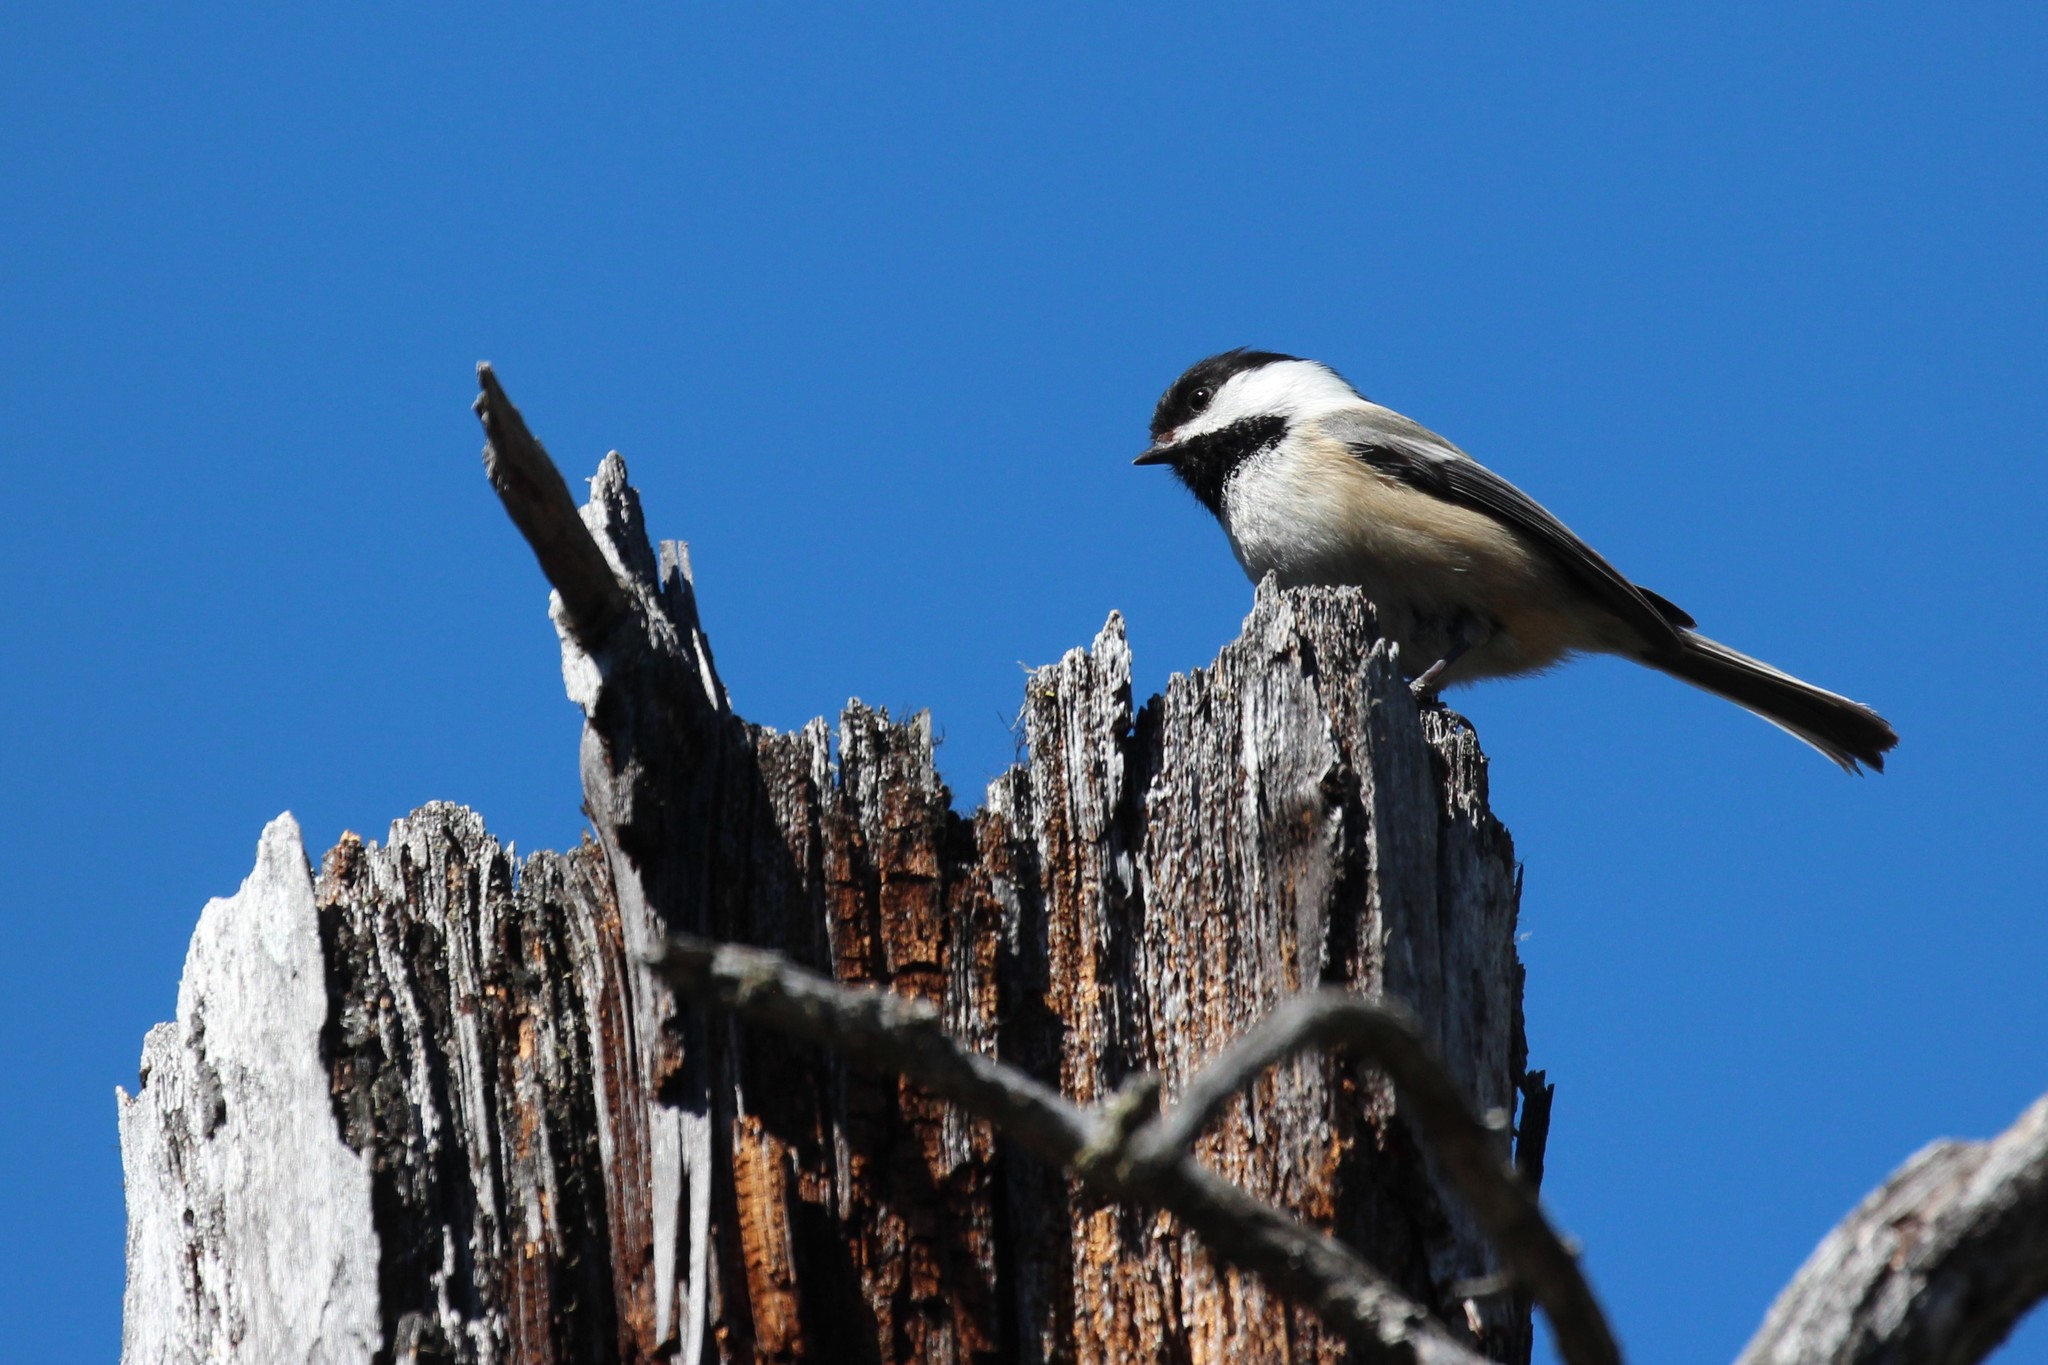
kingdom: Animalia
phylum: Chordata
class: Aves
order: Passeriformes
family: Paridae
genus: Poecile
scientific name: Poecile atricapillus
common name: Black-capped chickadee
